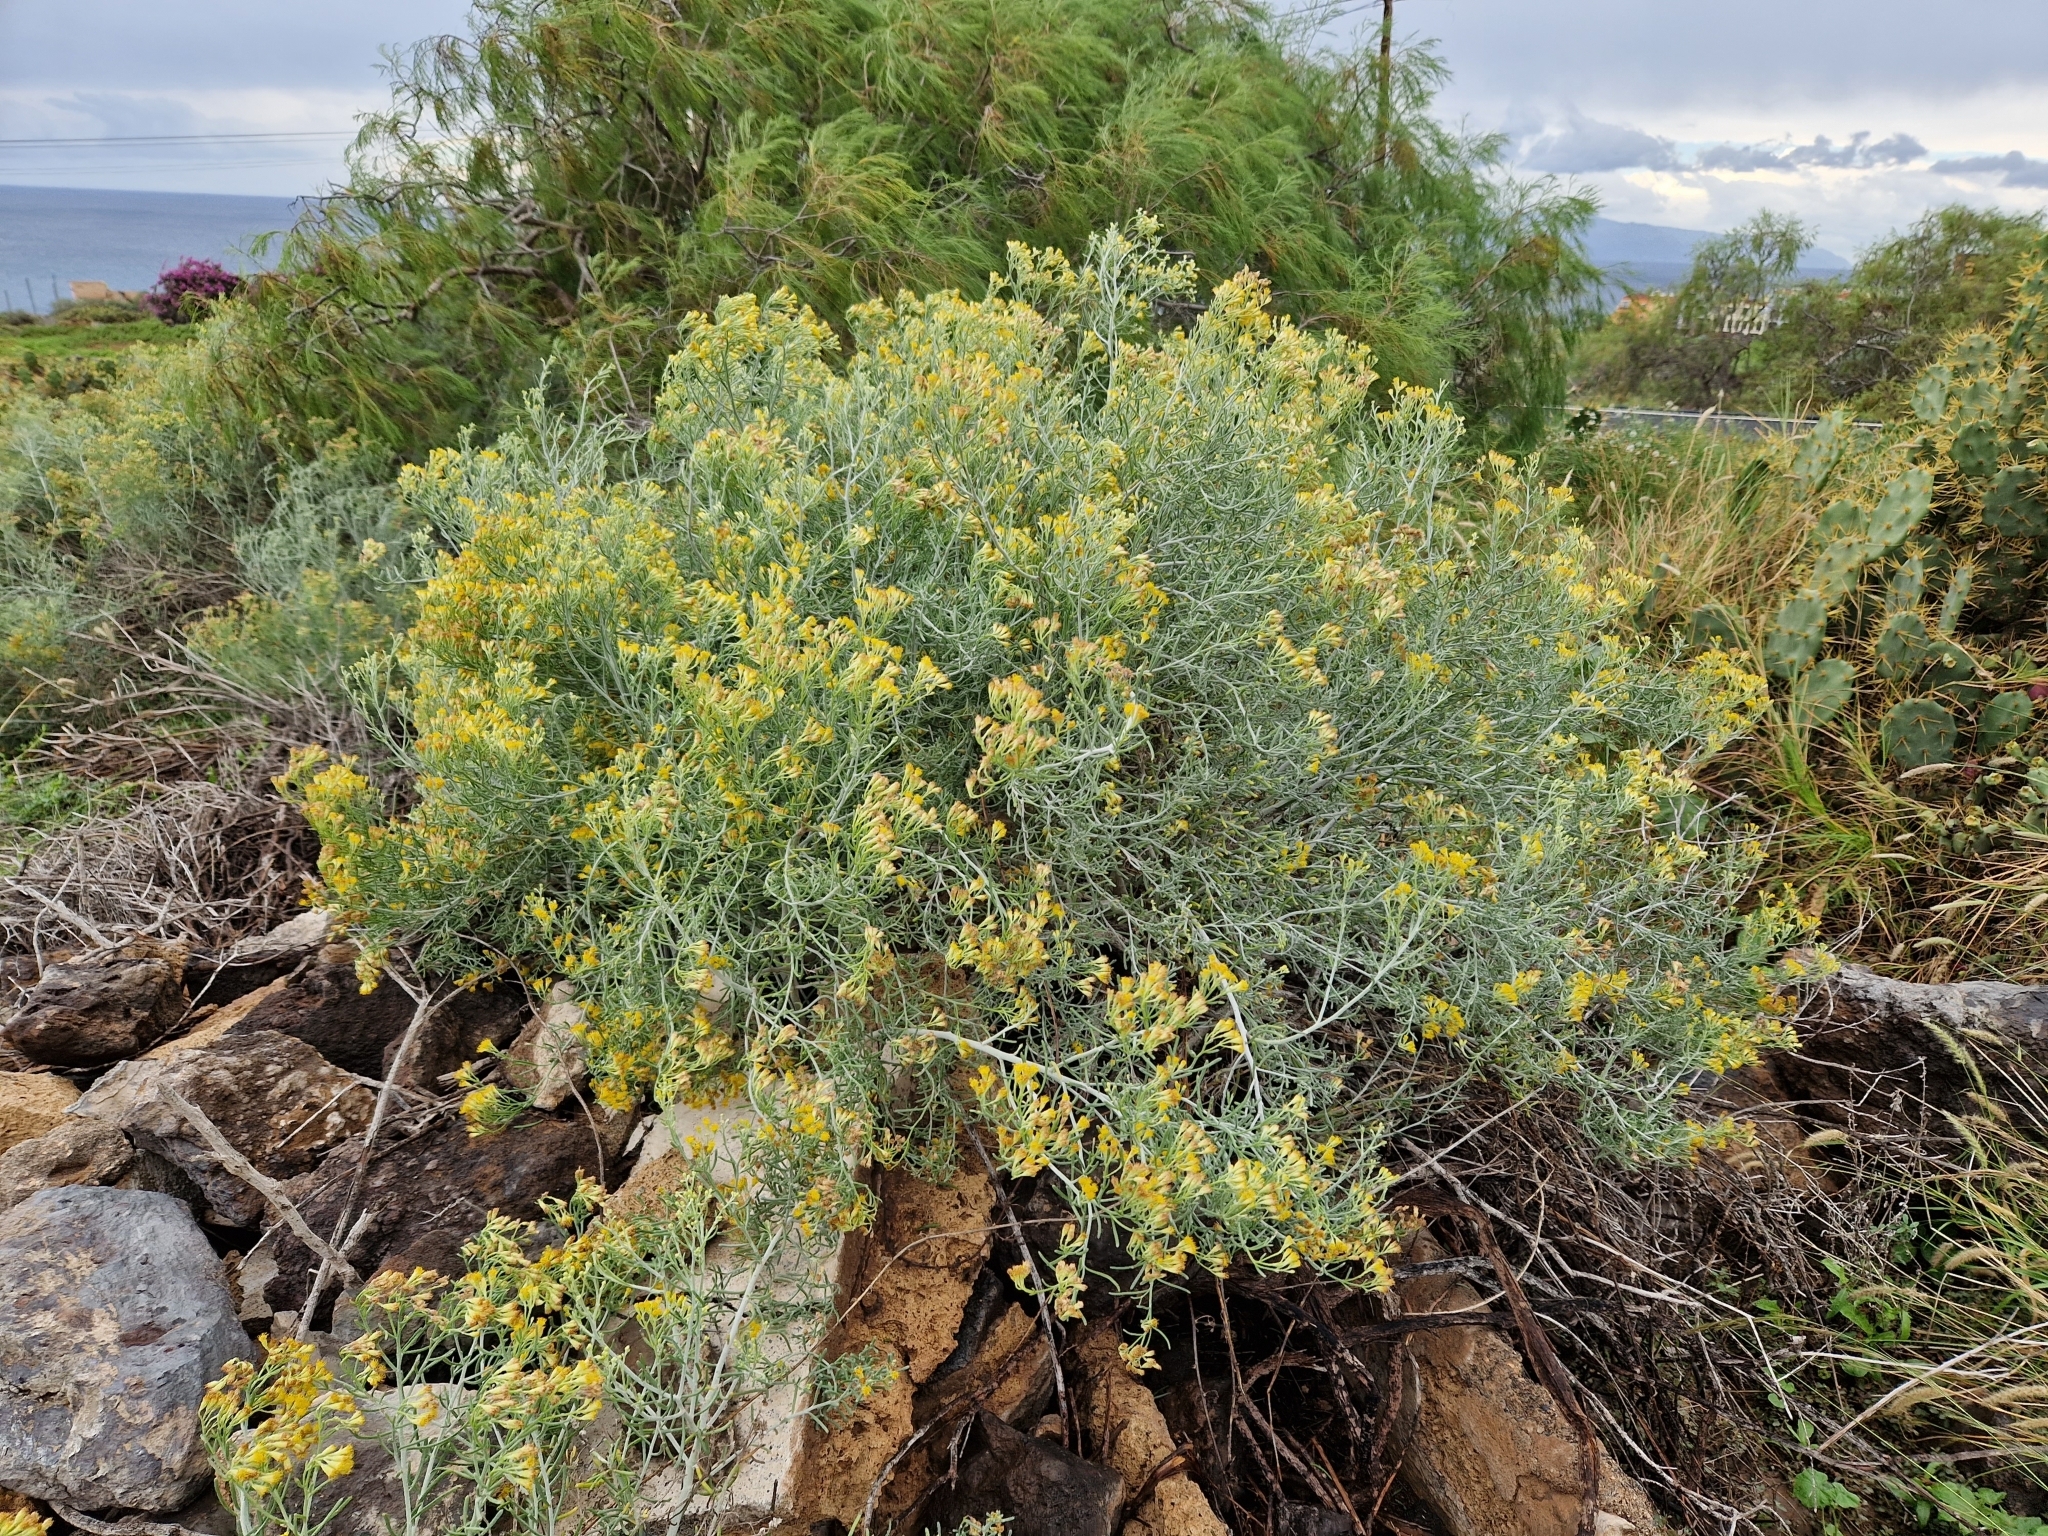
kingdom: Plantae
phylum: Tracheophyta
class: Magnoliopsida
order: Asterales
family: Asteraceae
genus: Schizogyne
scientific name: Schizogyne sericea
